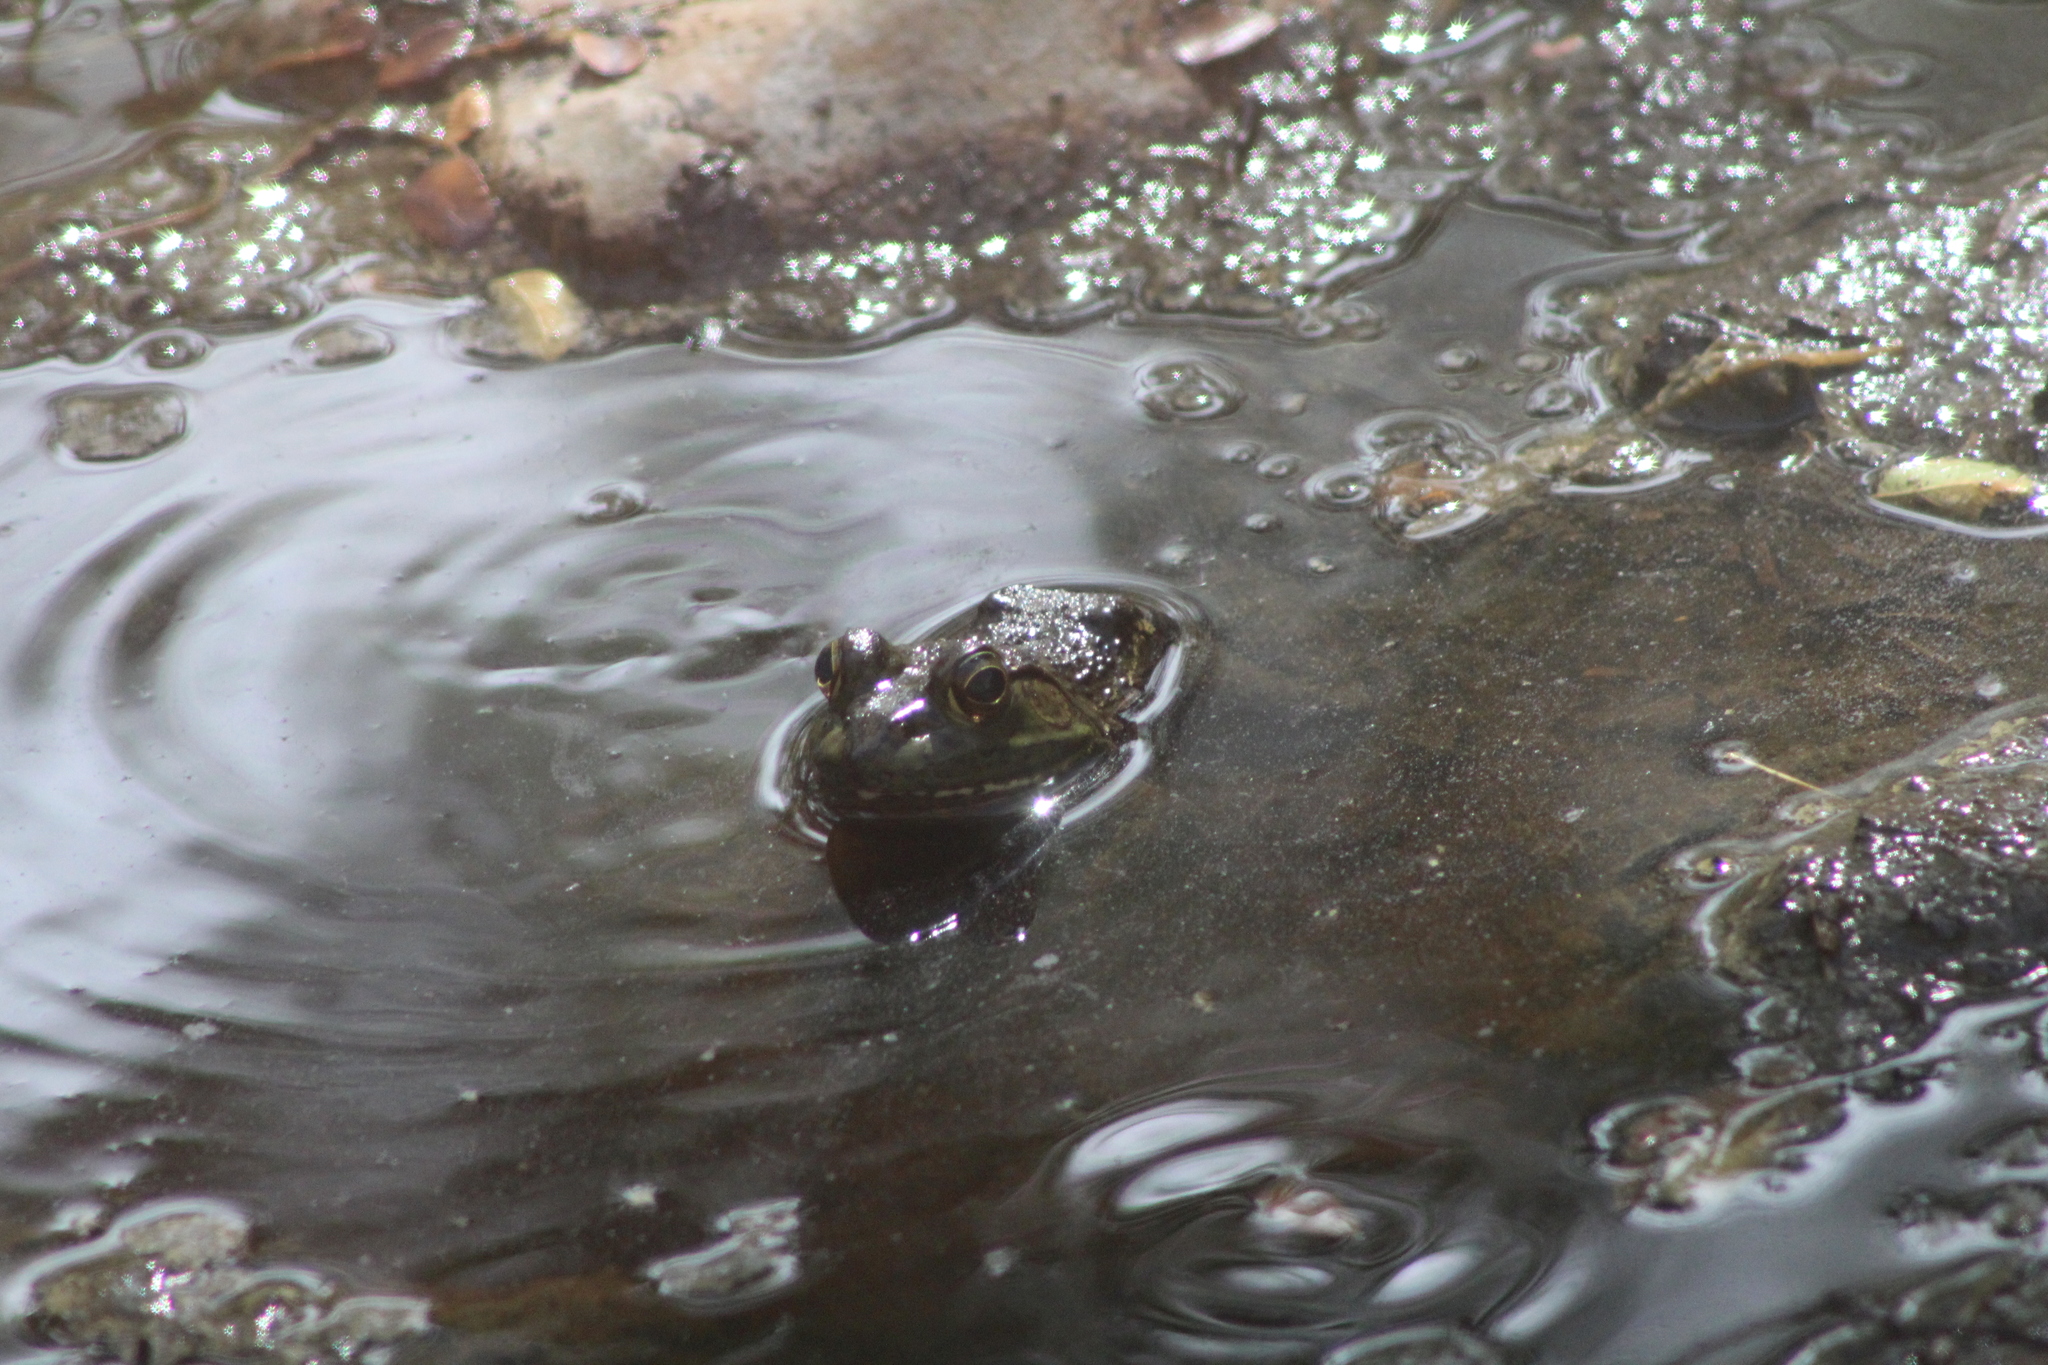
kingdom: Animalia
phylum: Chordata
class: Amphibia
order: Anura
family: Ranidae
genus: Lithobates
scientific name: Lithobates catesbeianus
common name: American bullfrog
